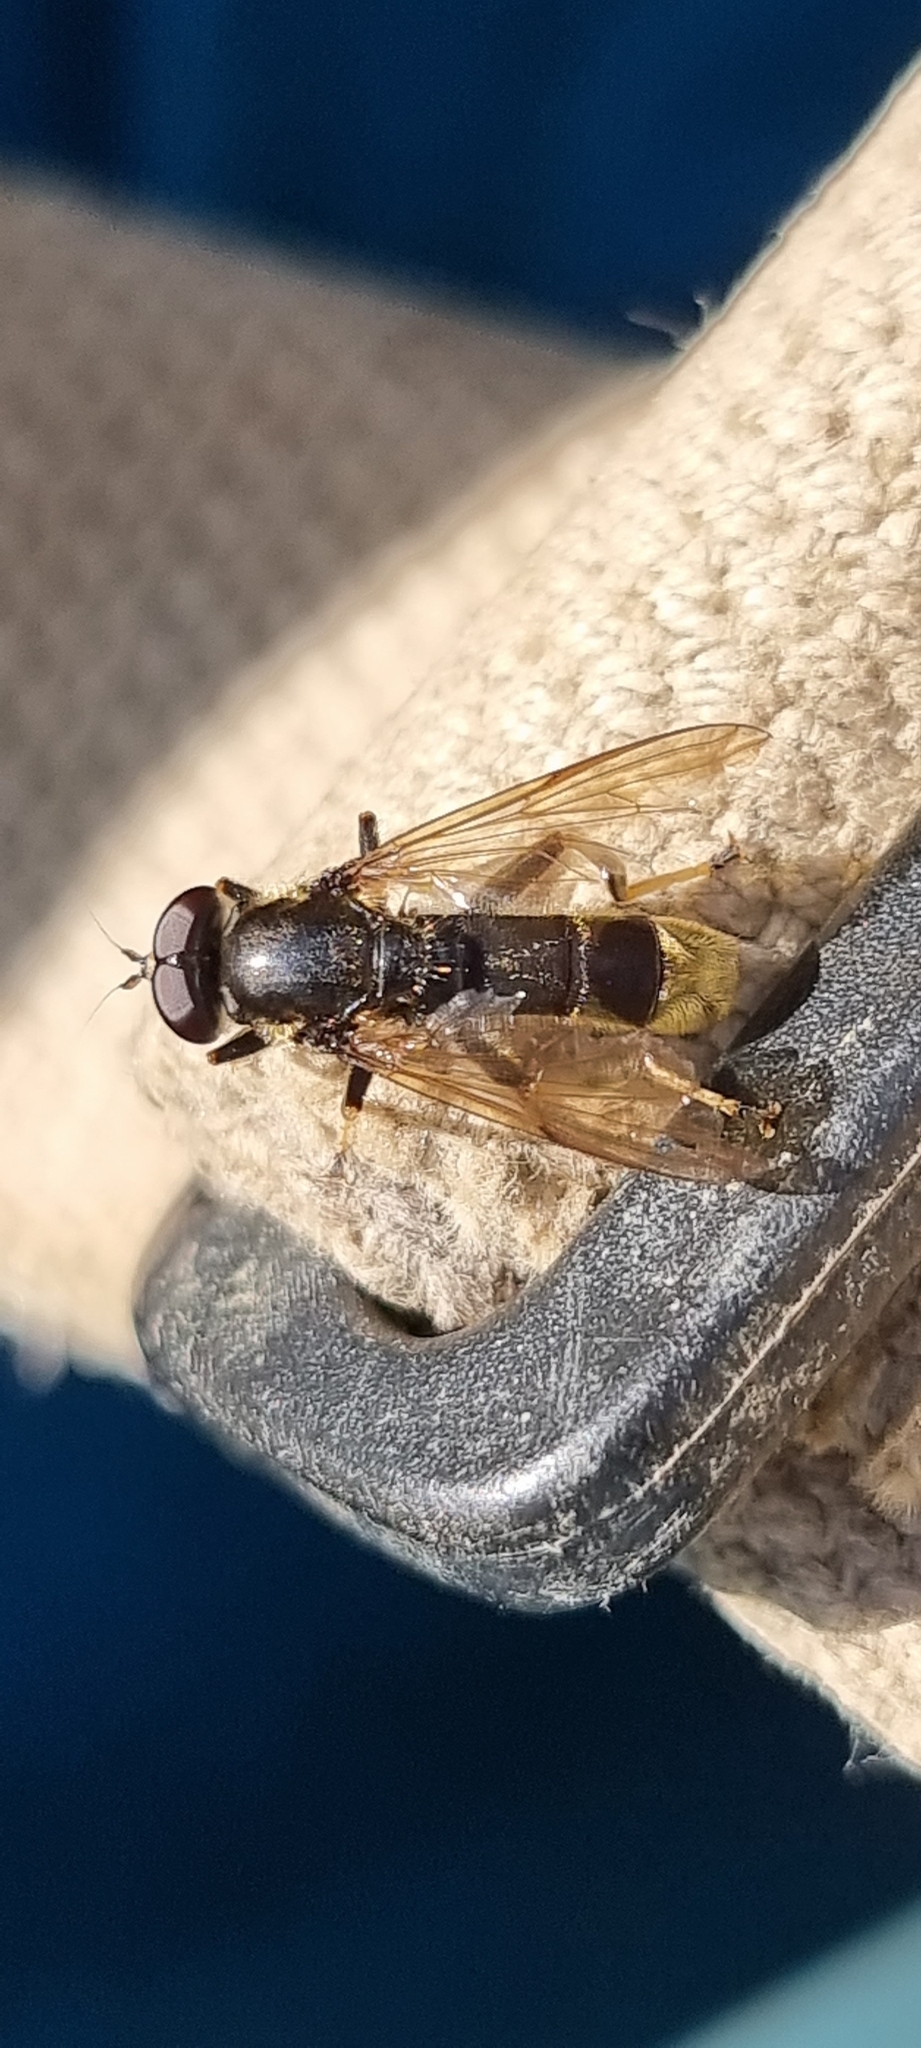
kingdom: Animalia
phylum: Arthropoda
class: Insecta
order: Diptera
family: Syrphidae
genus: Xylota
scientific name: Xylota sylvarum
